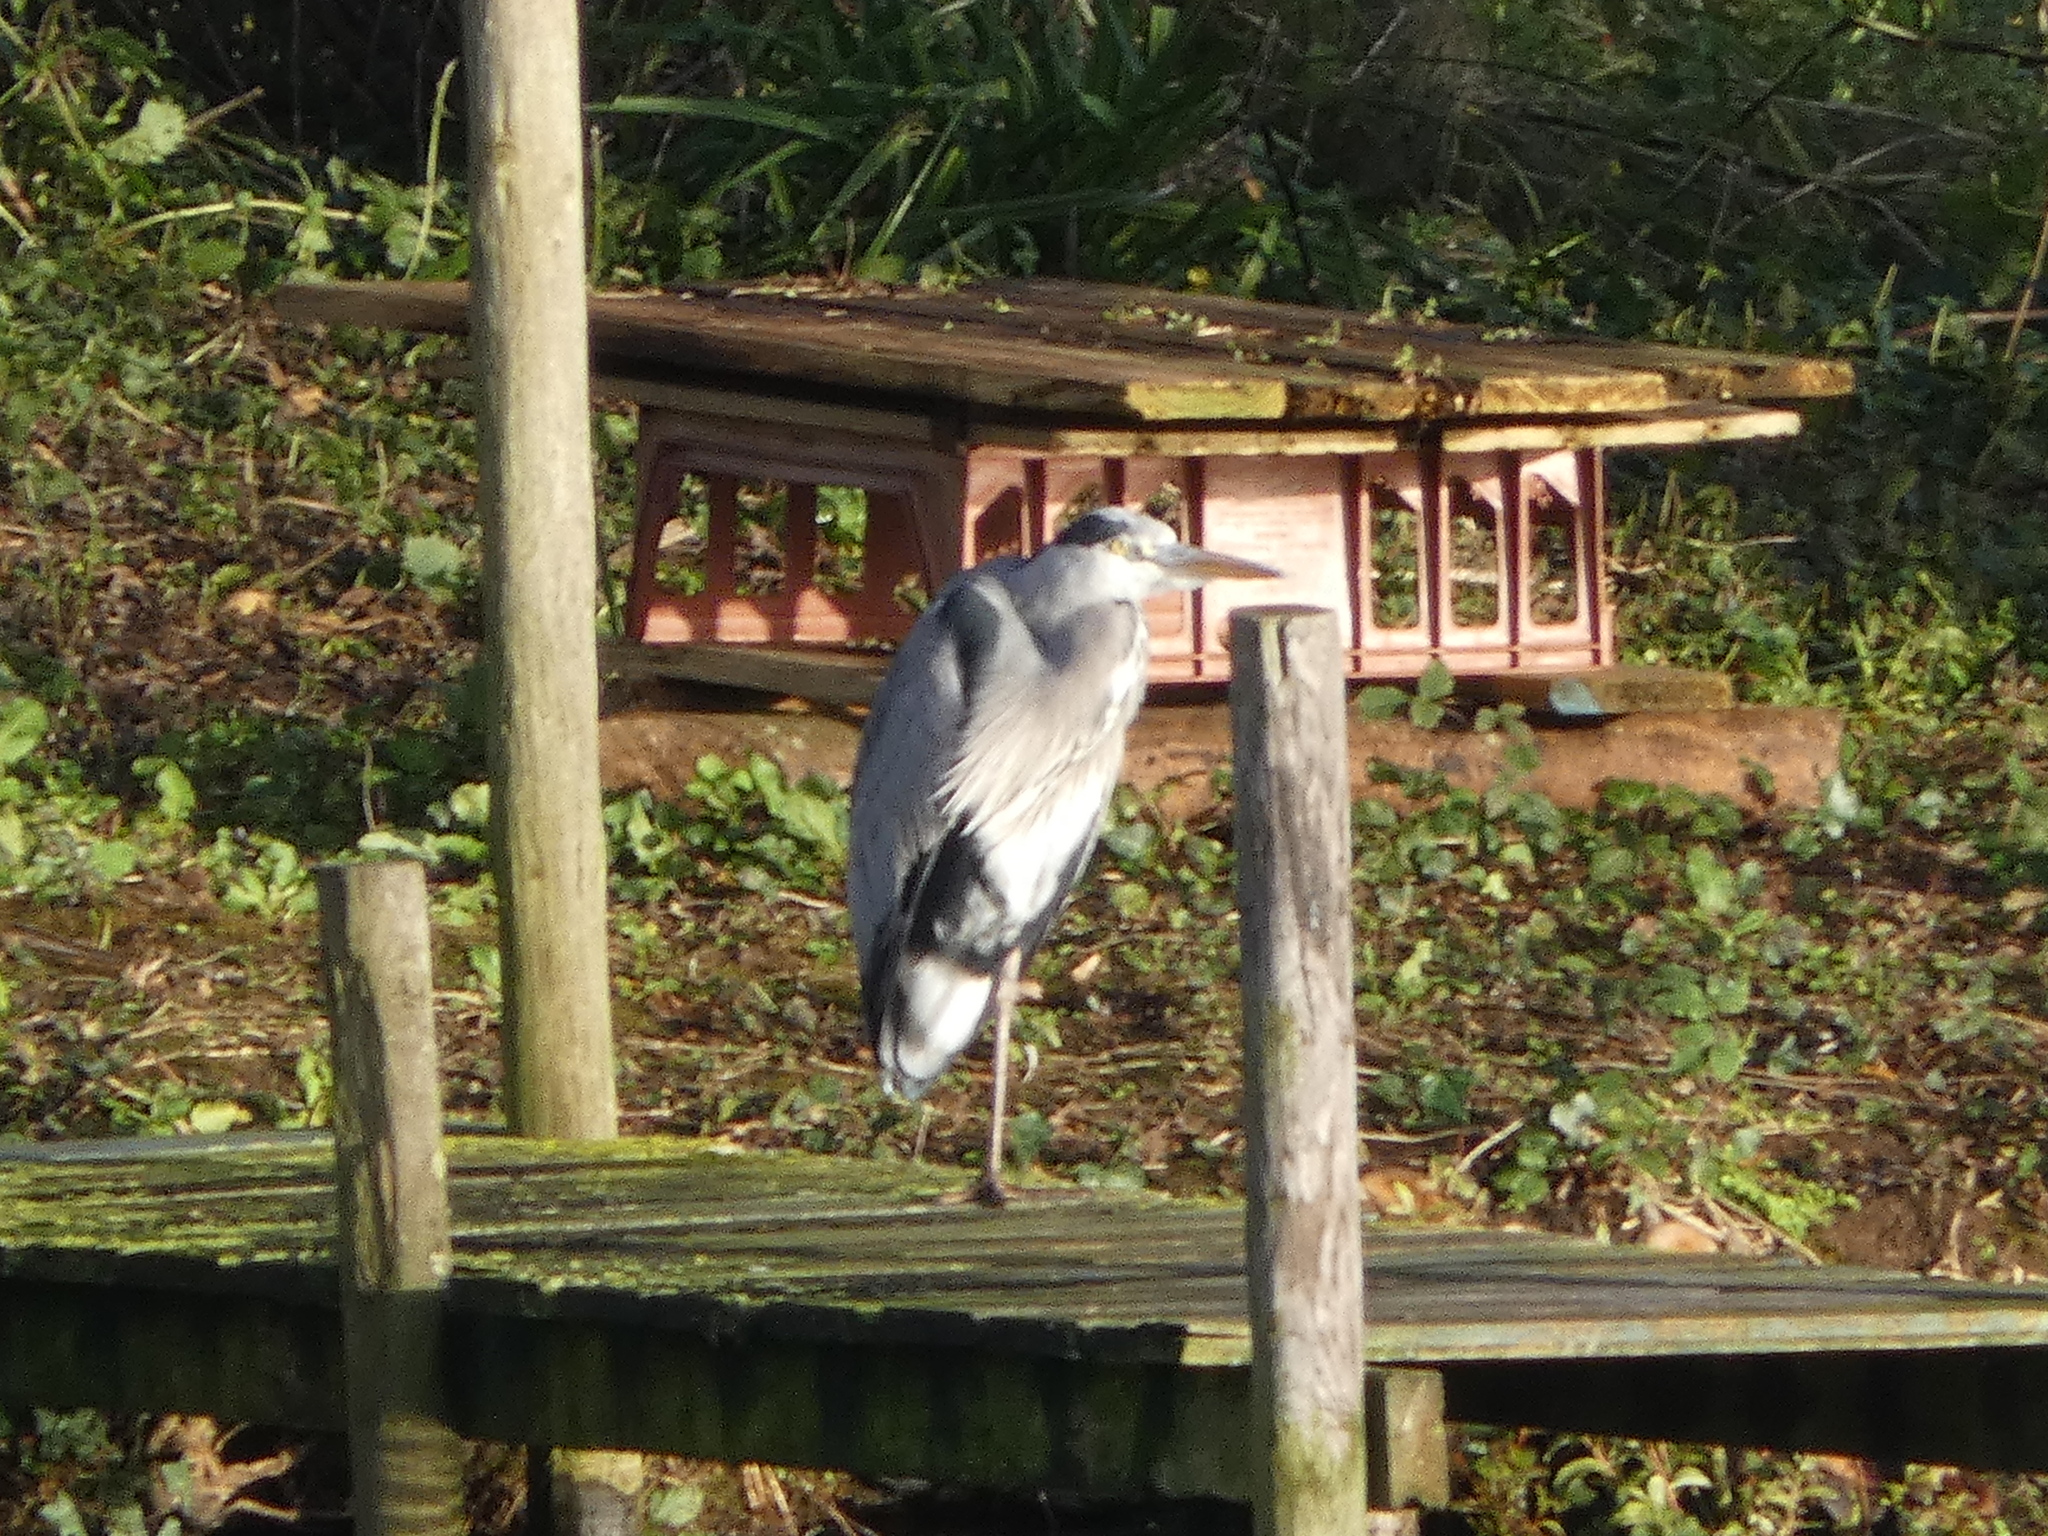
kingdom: Animalia
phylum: Chordata
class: Aves
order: Pelecaniformes
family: Ardeidae
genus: Ardea
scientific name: Ardea cinerea
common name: Grey heron
